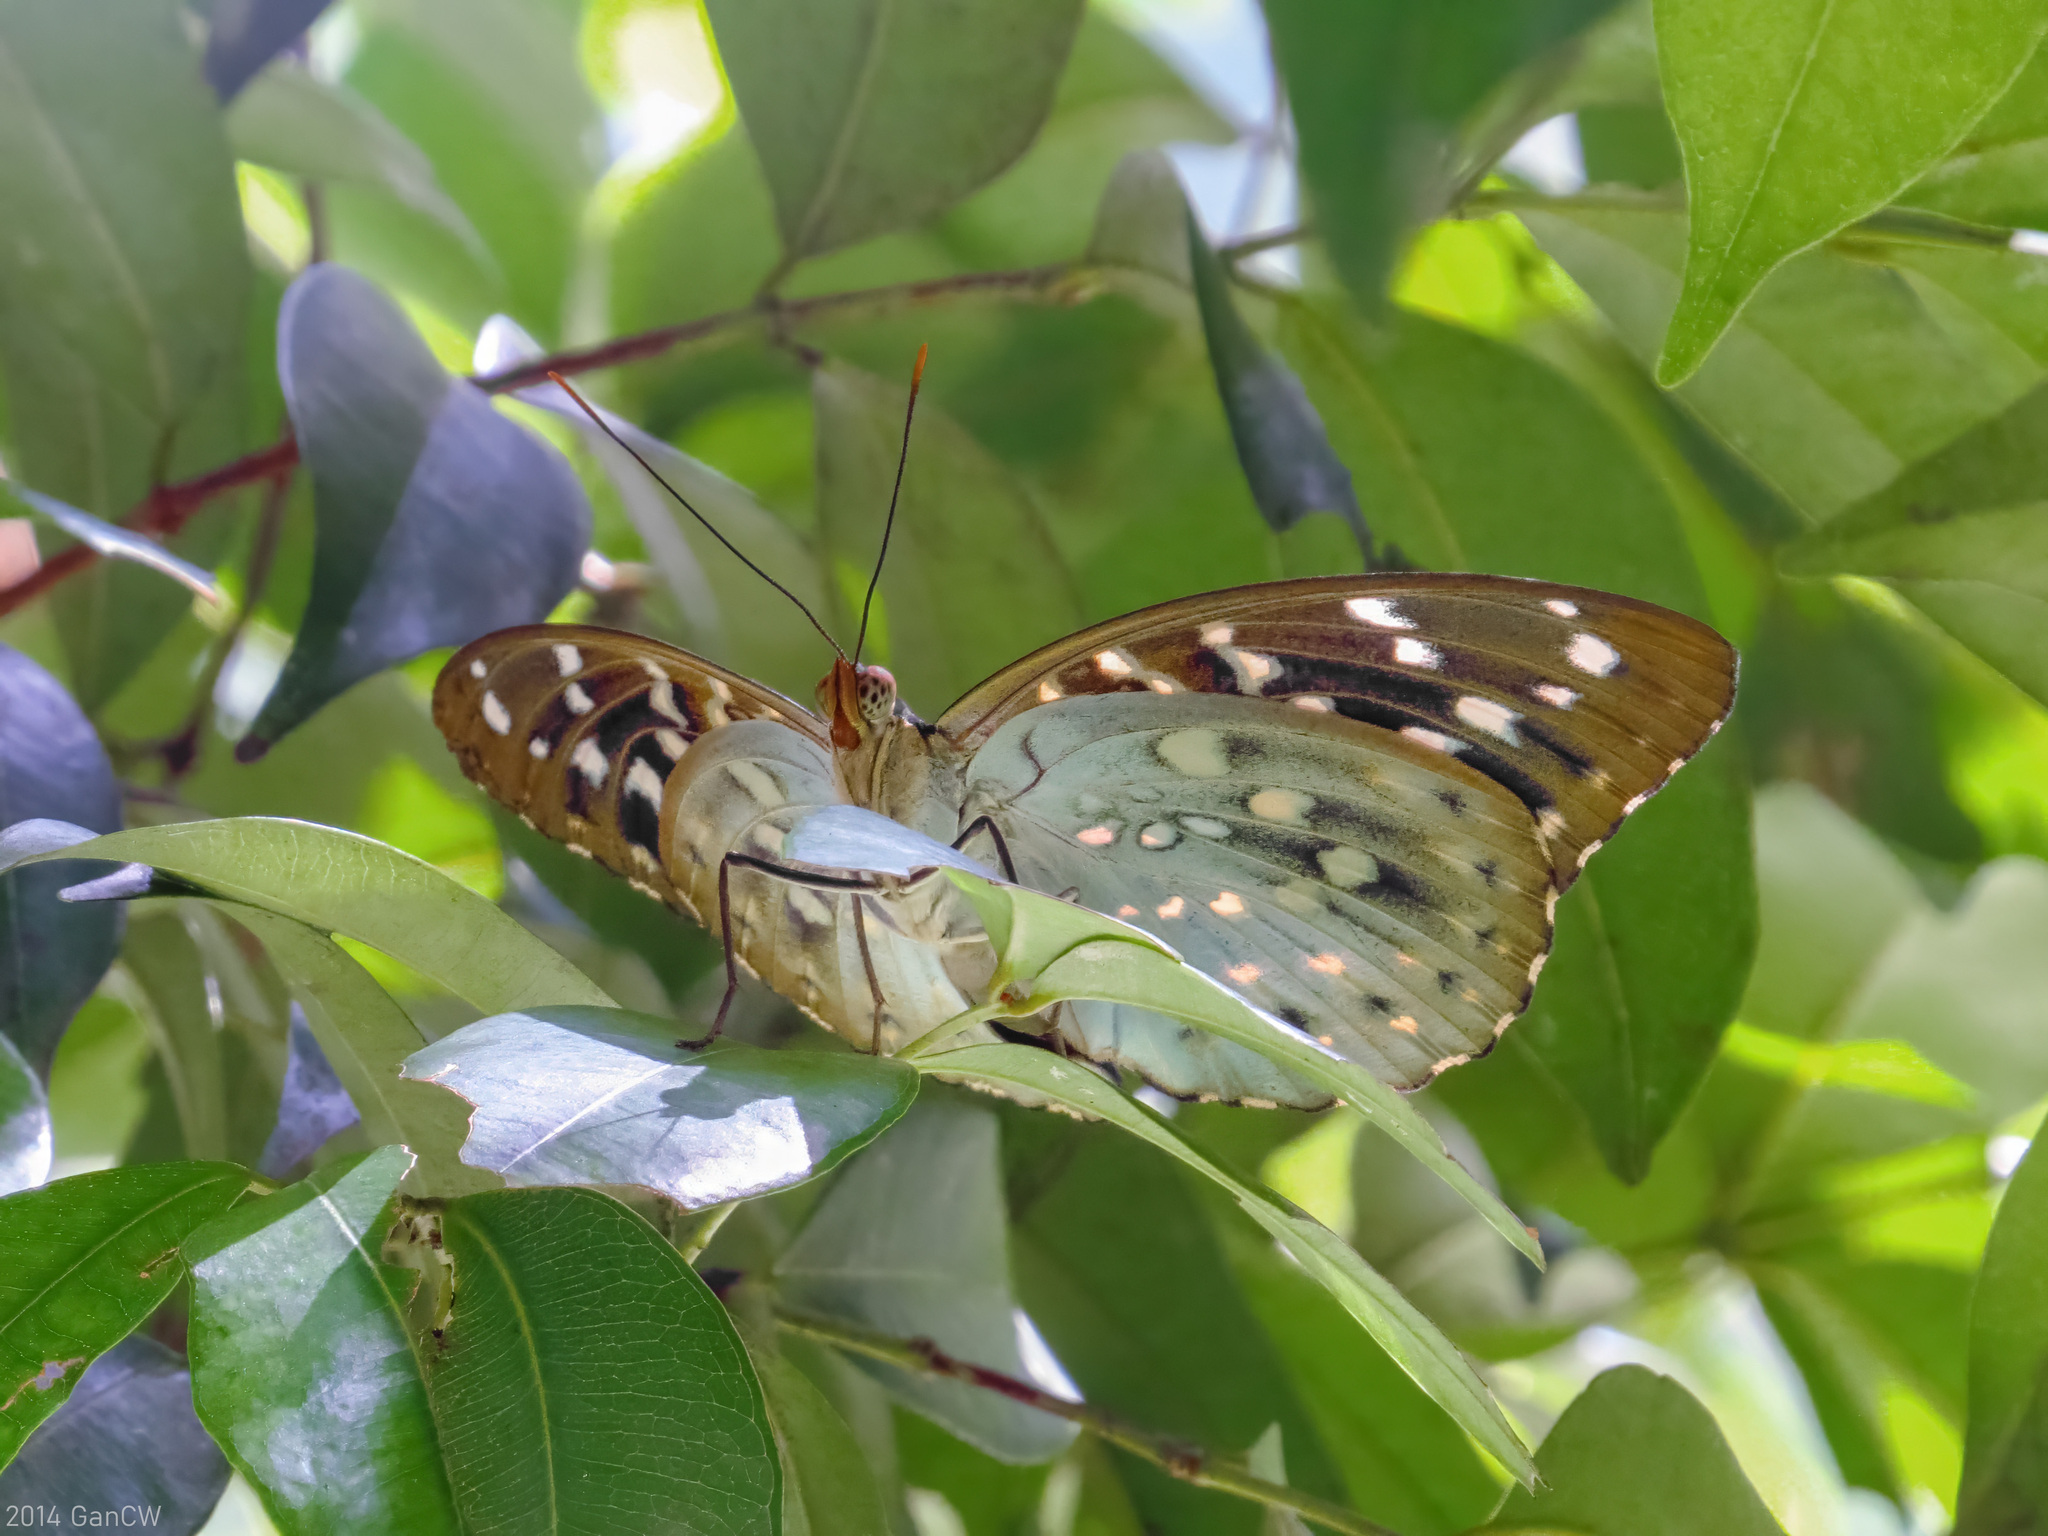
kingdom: Animalia
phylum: Arthropoda
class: Insecta
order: Lepidoptera
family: Nymphalidae
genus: Lexias
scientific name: Lexias pardalis
